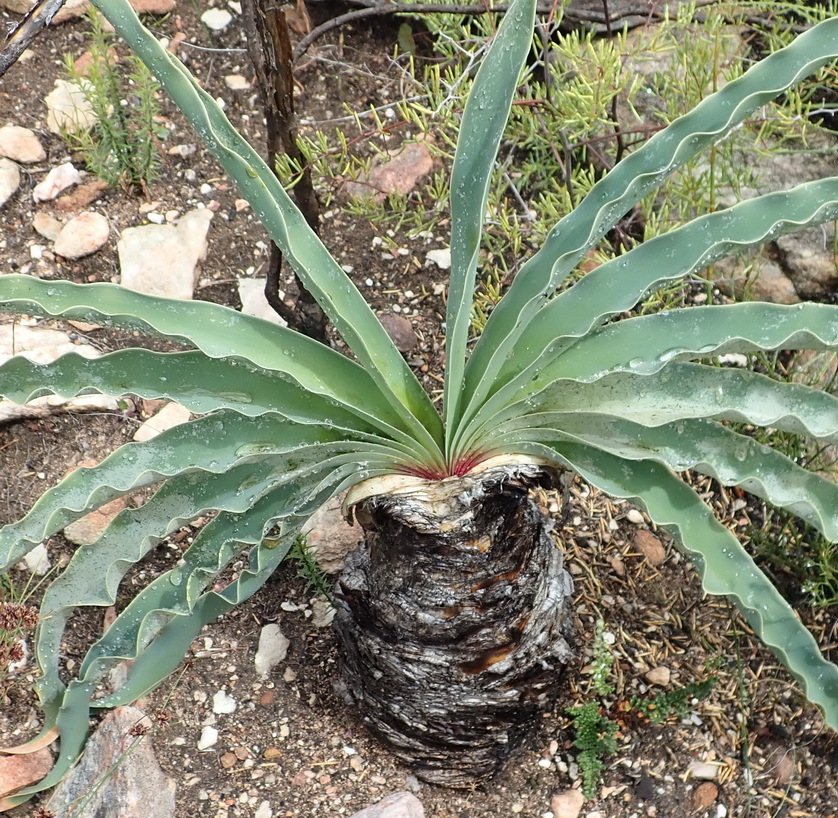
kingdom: Plantae
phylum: Tracheophyta
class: Liliopsida
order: Asparagales
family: Amaryllidaceae
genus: Boophone
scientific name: Boophone disticha
